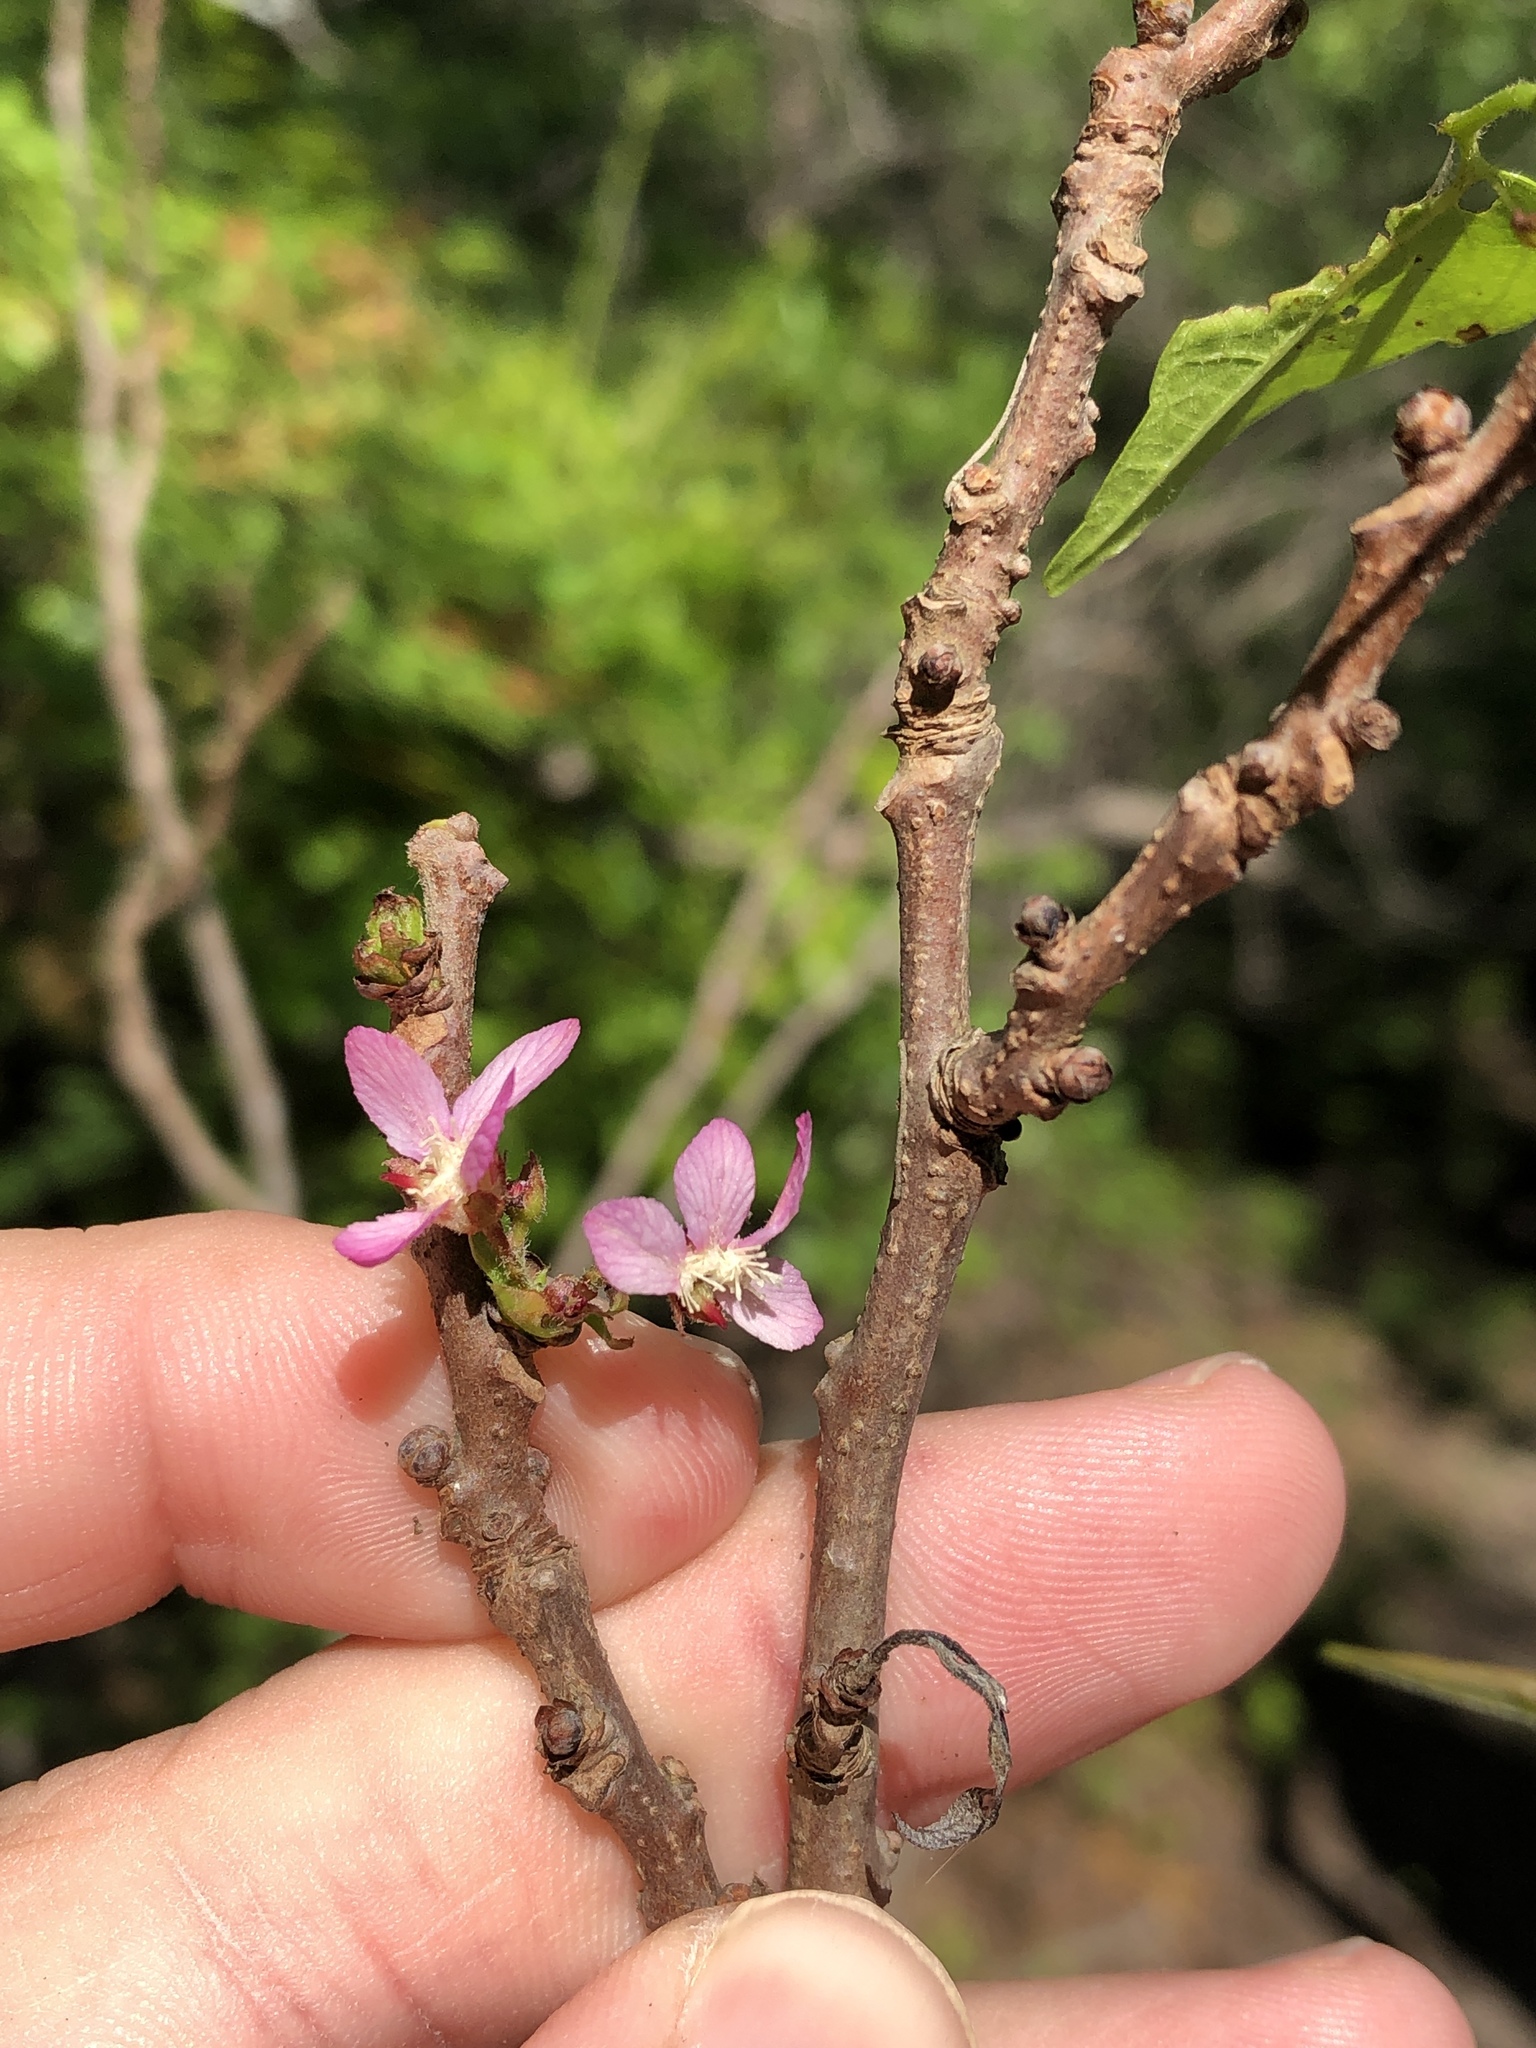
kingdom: Plantae
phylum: Tracheophyta
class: Magnoliopsida
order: Sapindales
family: Sapindaceae
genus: Ungnadia
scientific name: Ungnadia speciosa
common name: Texas-buckeye
